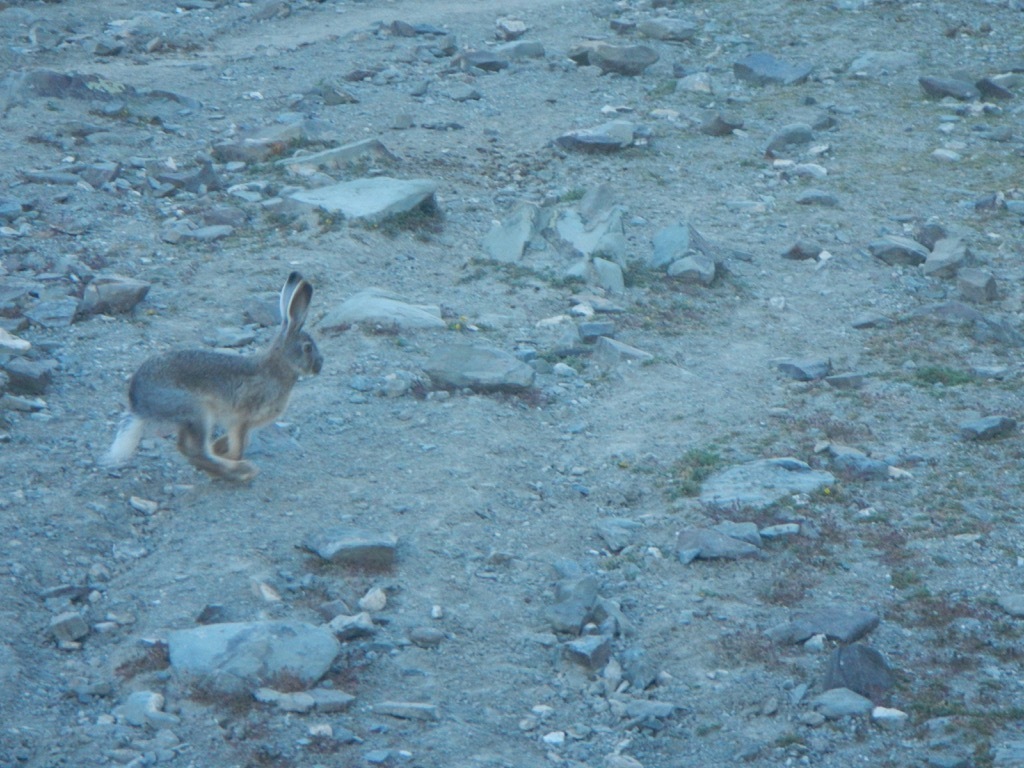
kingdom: Animalia
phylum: Chordata
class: Mammalia
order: Lagomorpha
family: Leporidae
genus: Lepus
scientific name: Lepus oiostolus
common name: Woolly hare
